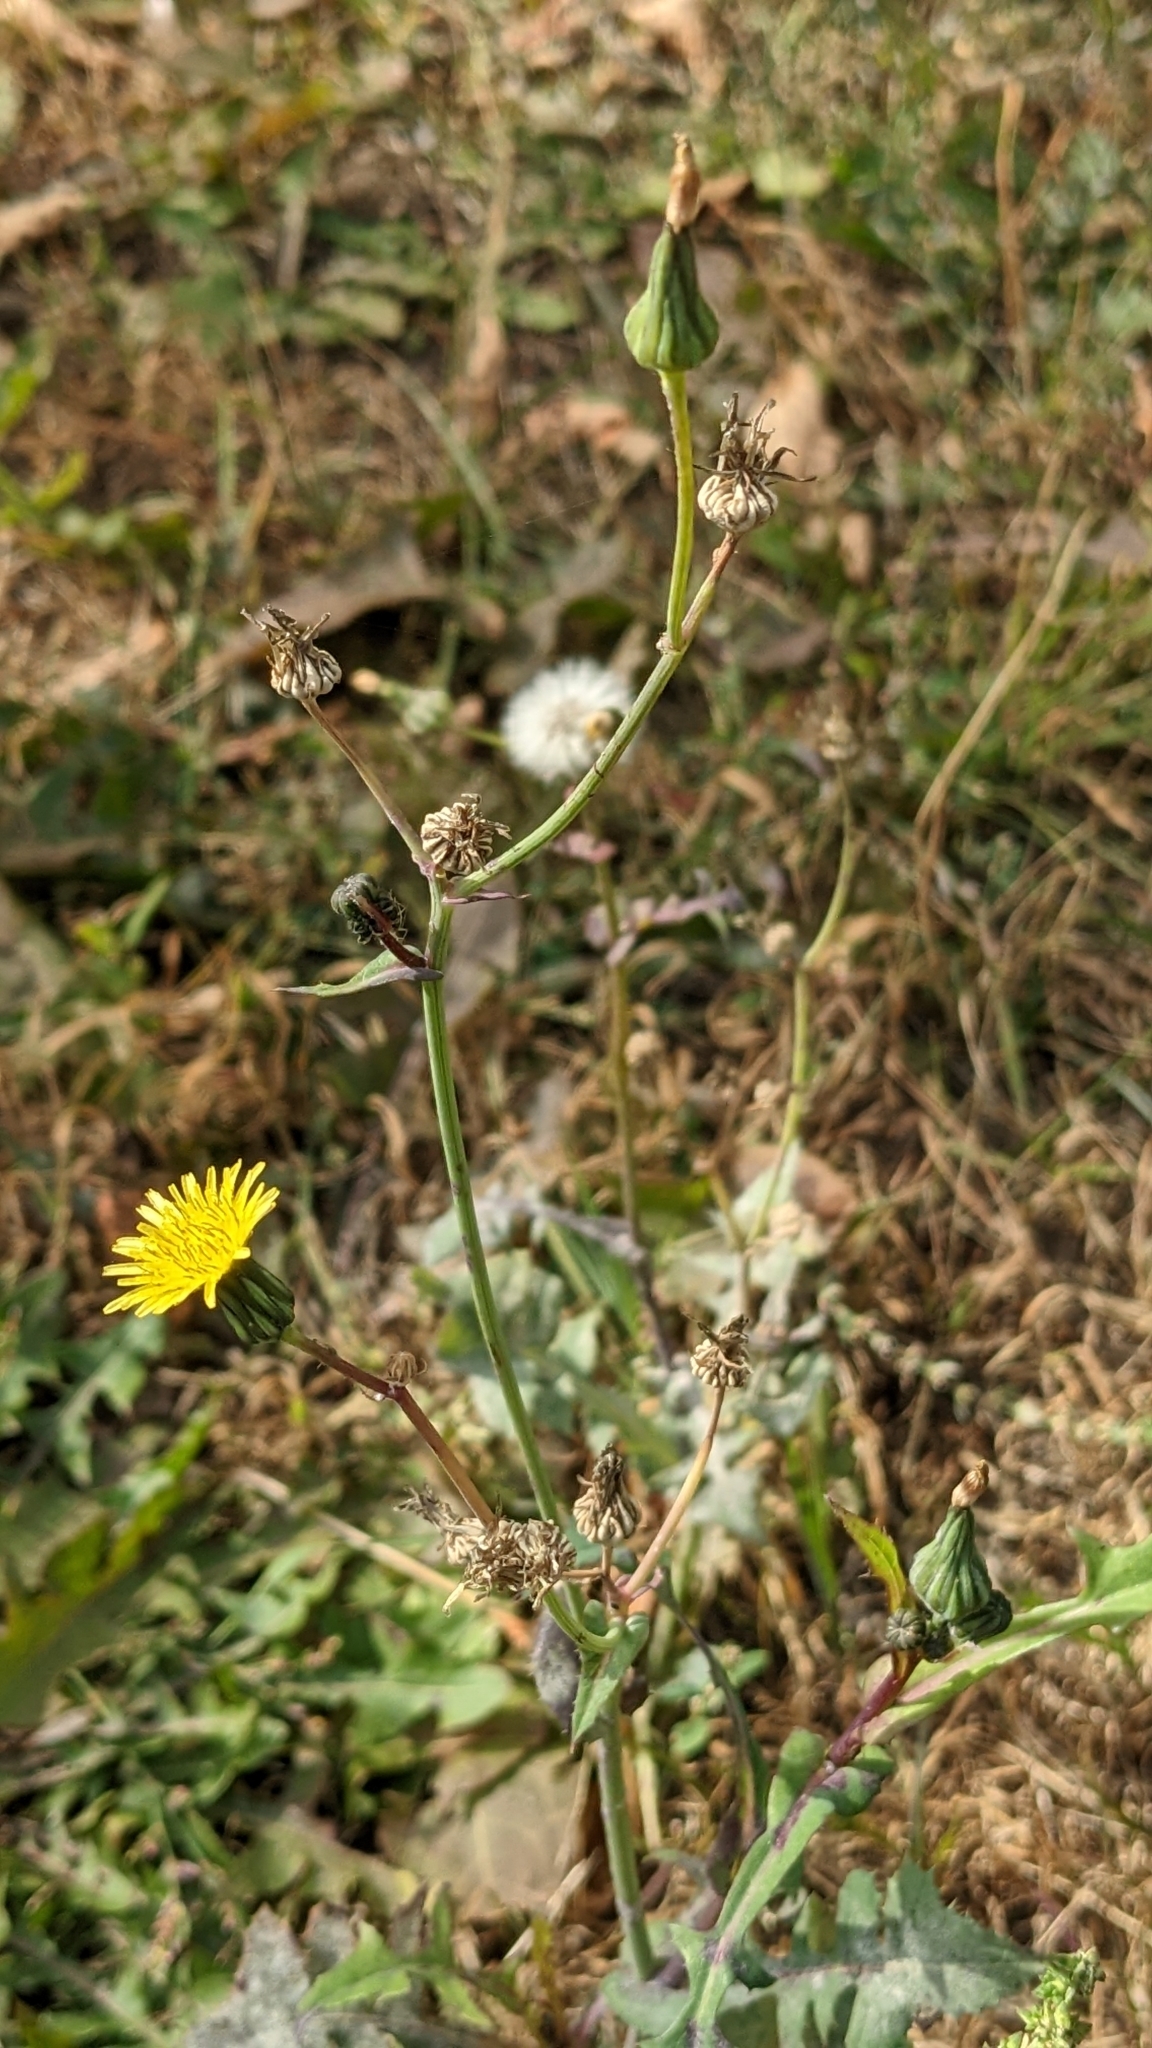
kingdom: Plantae
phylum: Tracheophyta
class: Magnoliopsida
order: Asterales
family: Asteraceae
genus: Sonchus
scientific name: Sonchus oleraceus
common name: Common sowthistle
